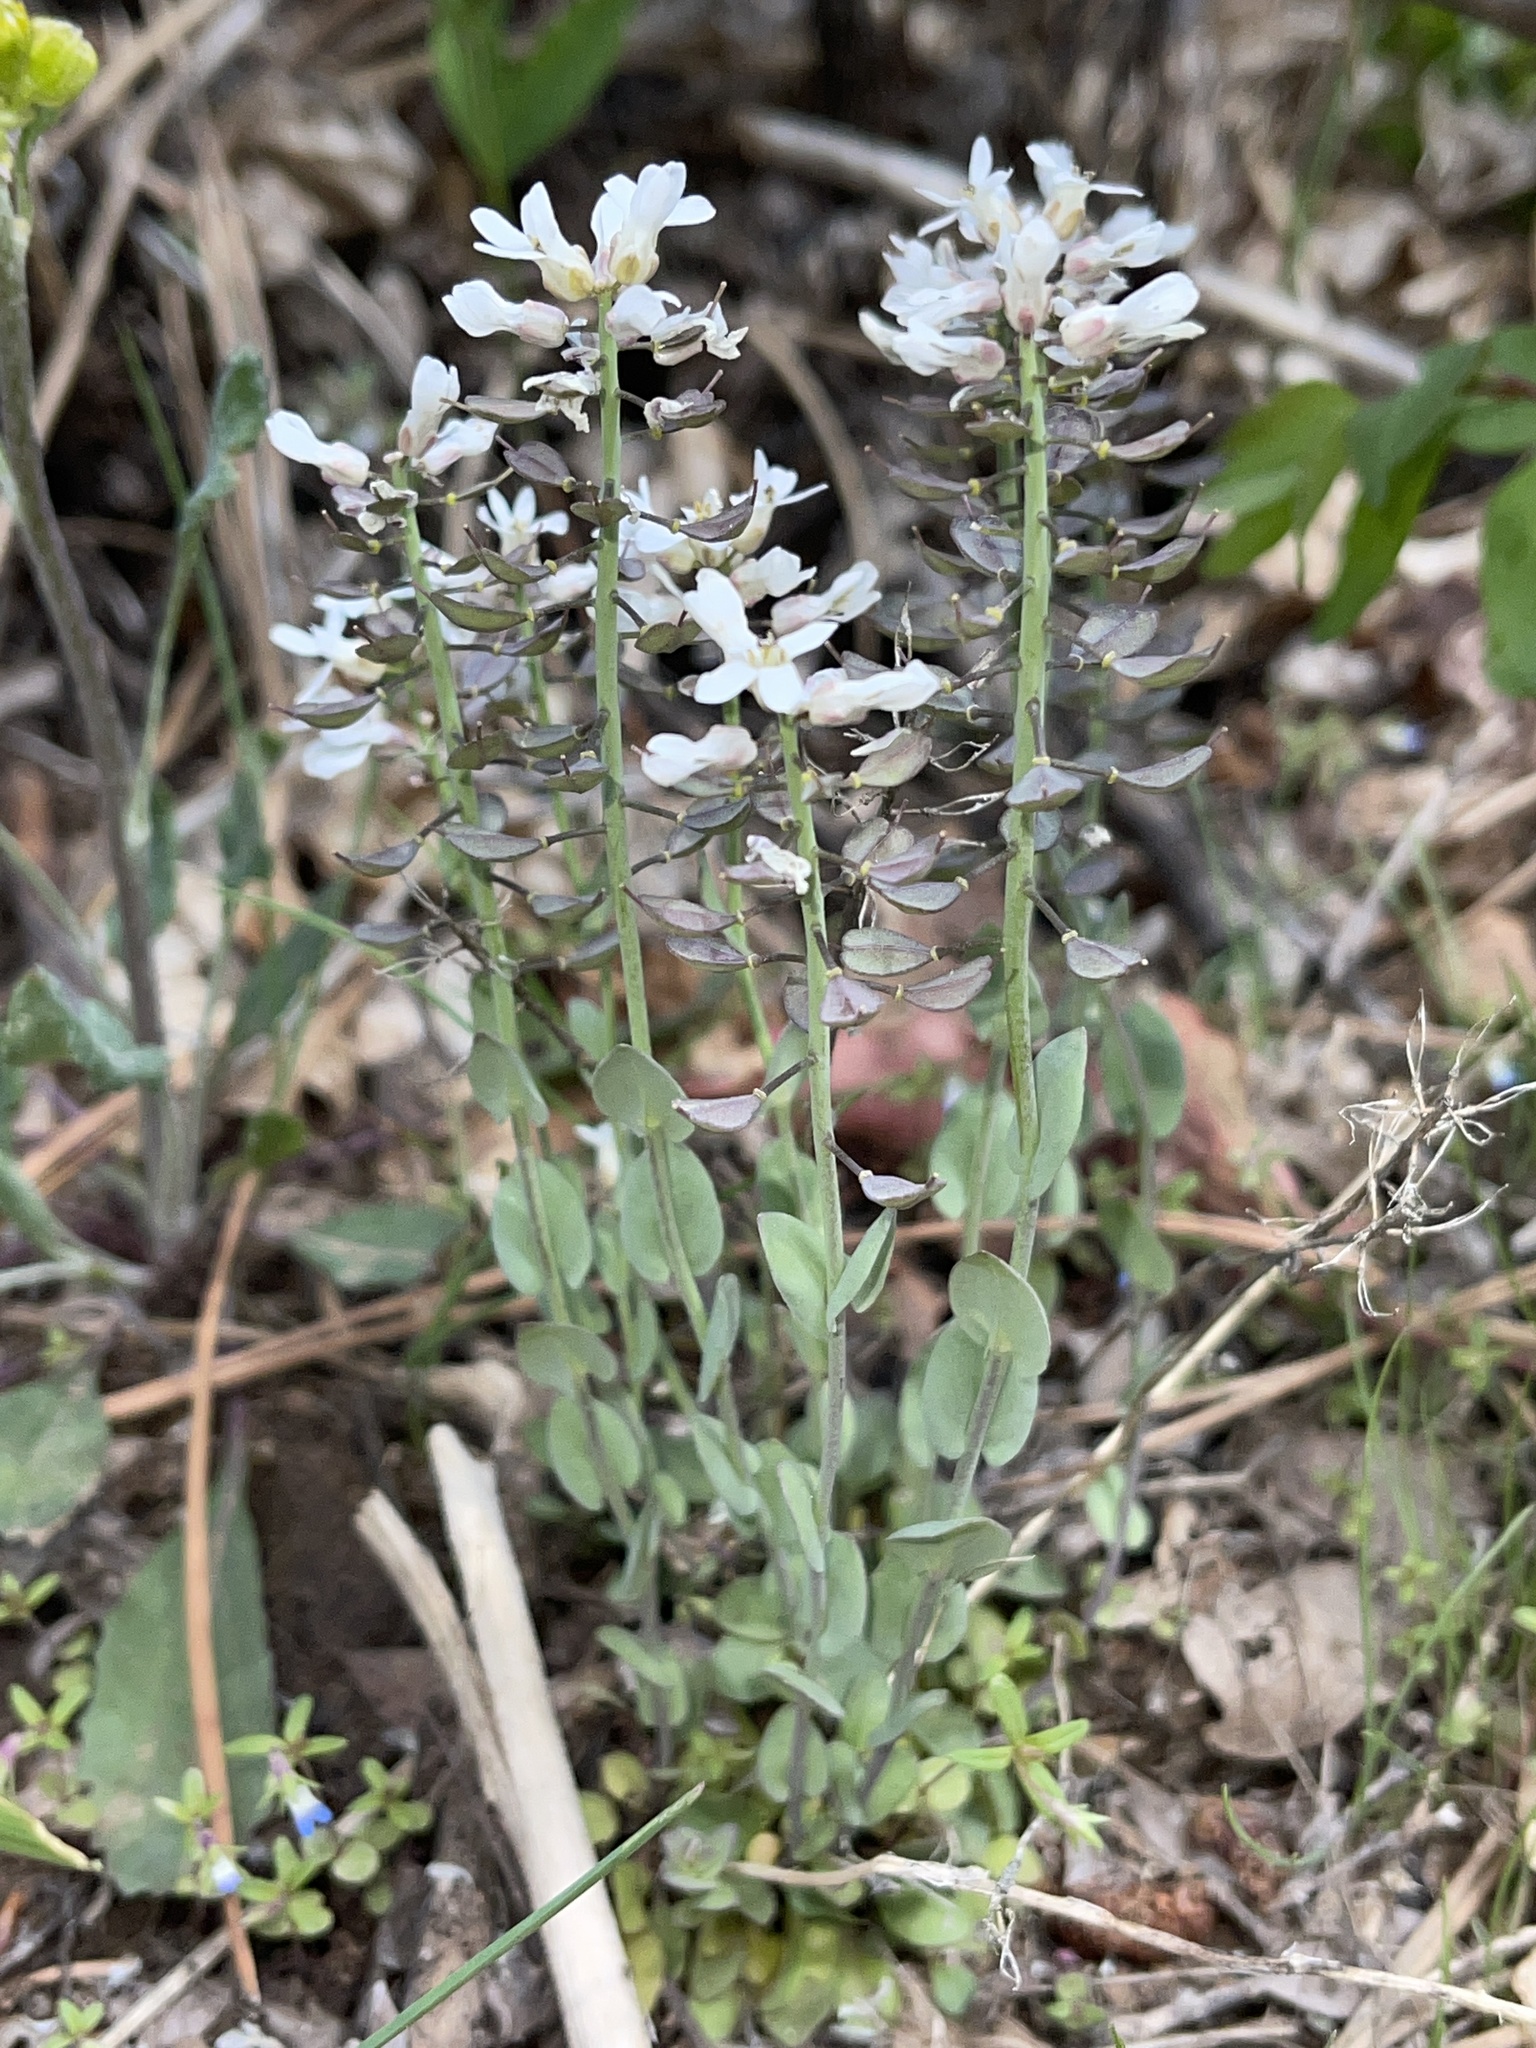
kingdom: Plantae
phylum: Tracheophyta
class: Magnoliopsida
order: Brassicales
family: Brassicaceae
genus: Noccaea
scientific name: Noccaea fendleri
